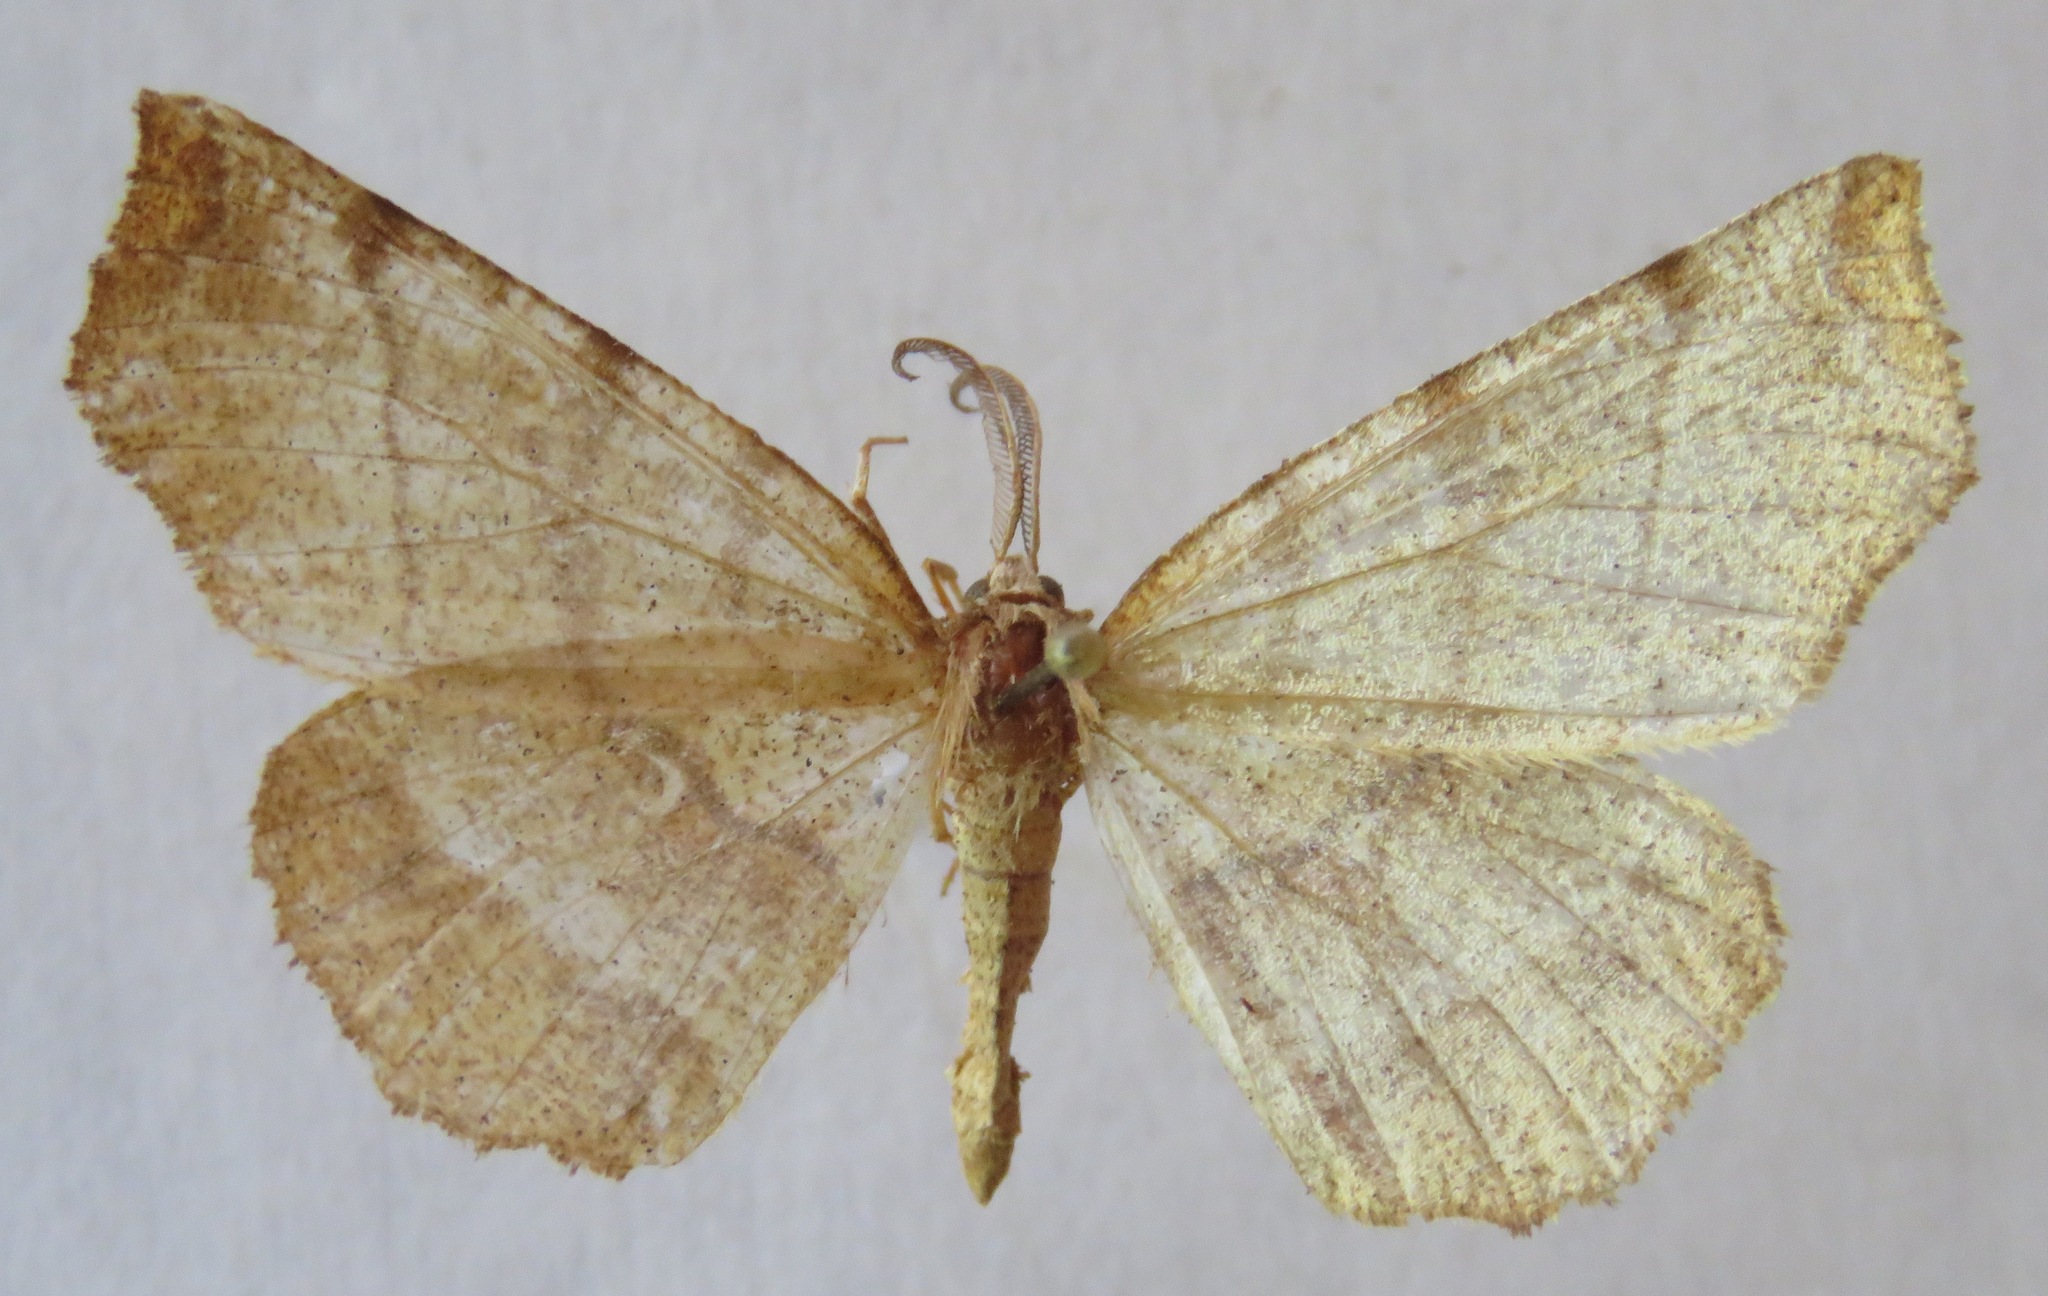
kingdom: Animalia
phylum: Arthropoda
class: Insecta
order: Lepidoptera
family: Geometridae
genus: Selenia
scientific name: Selenia dentaria
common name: Early thorn
